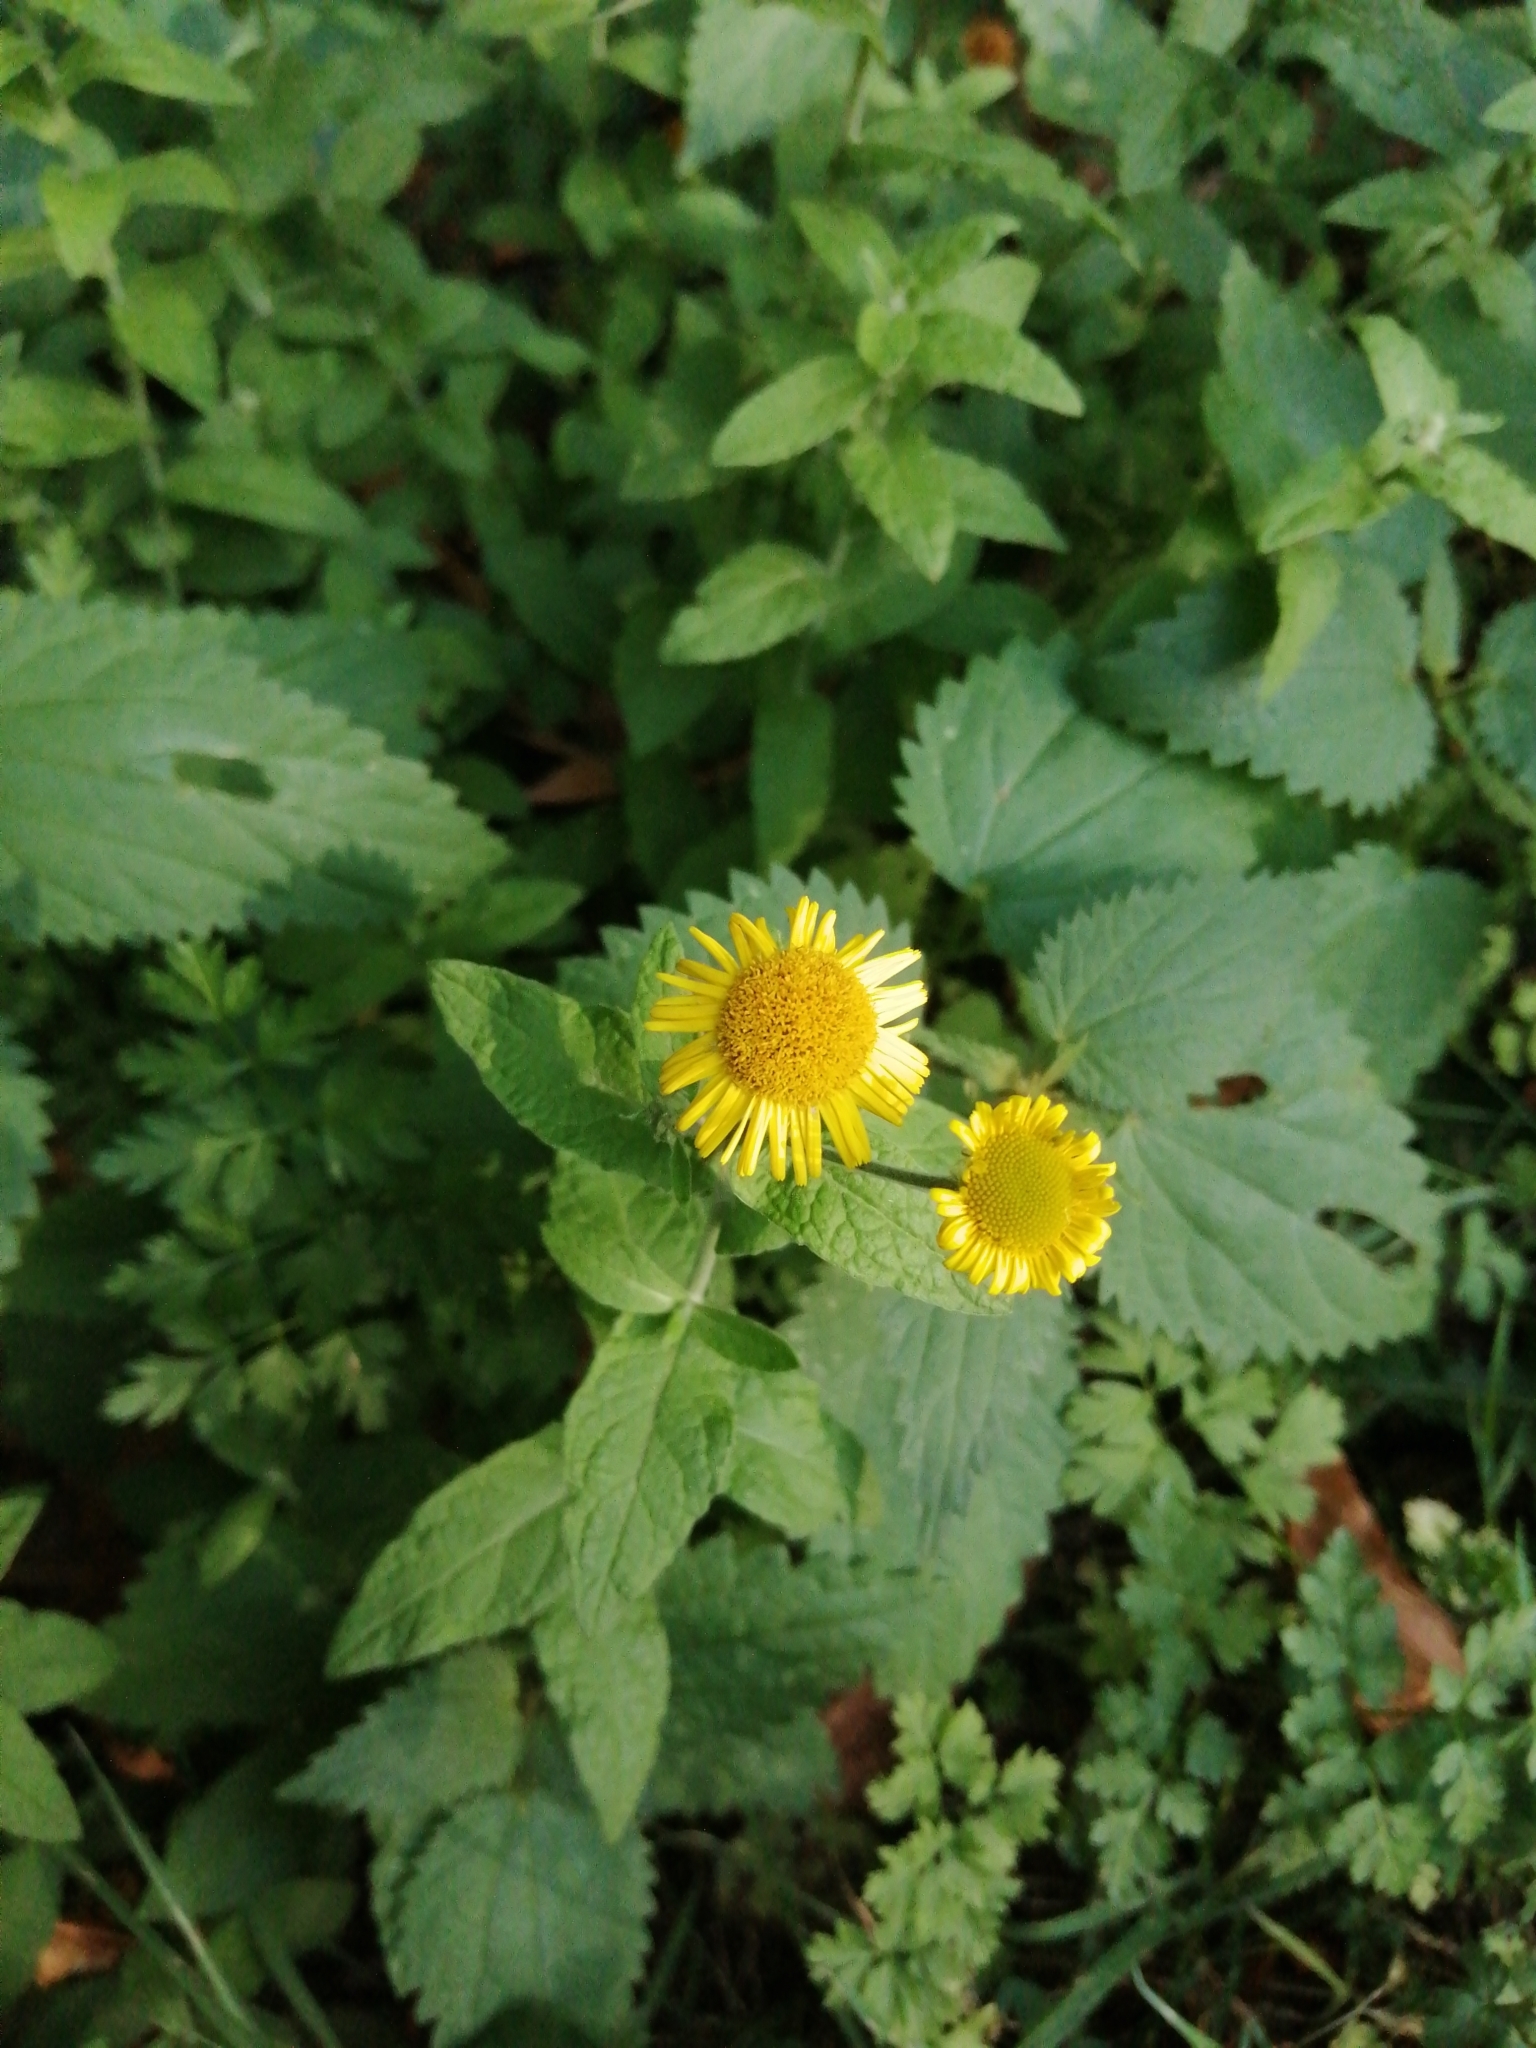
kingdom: Plantae
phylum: Tracheophyta
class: Magnoliopsida
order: Asterales
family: Asteraceae
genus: Pulicaria
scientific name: Pulicaria dysenterica
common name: Common fleabane
